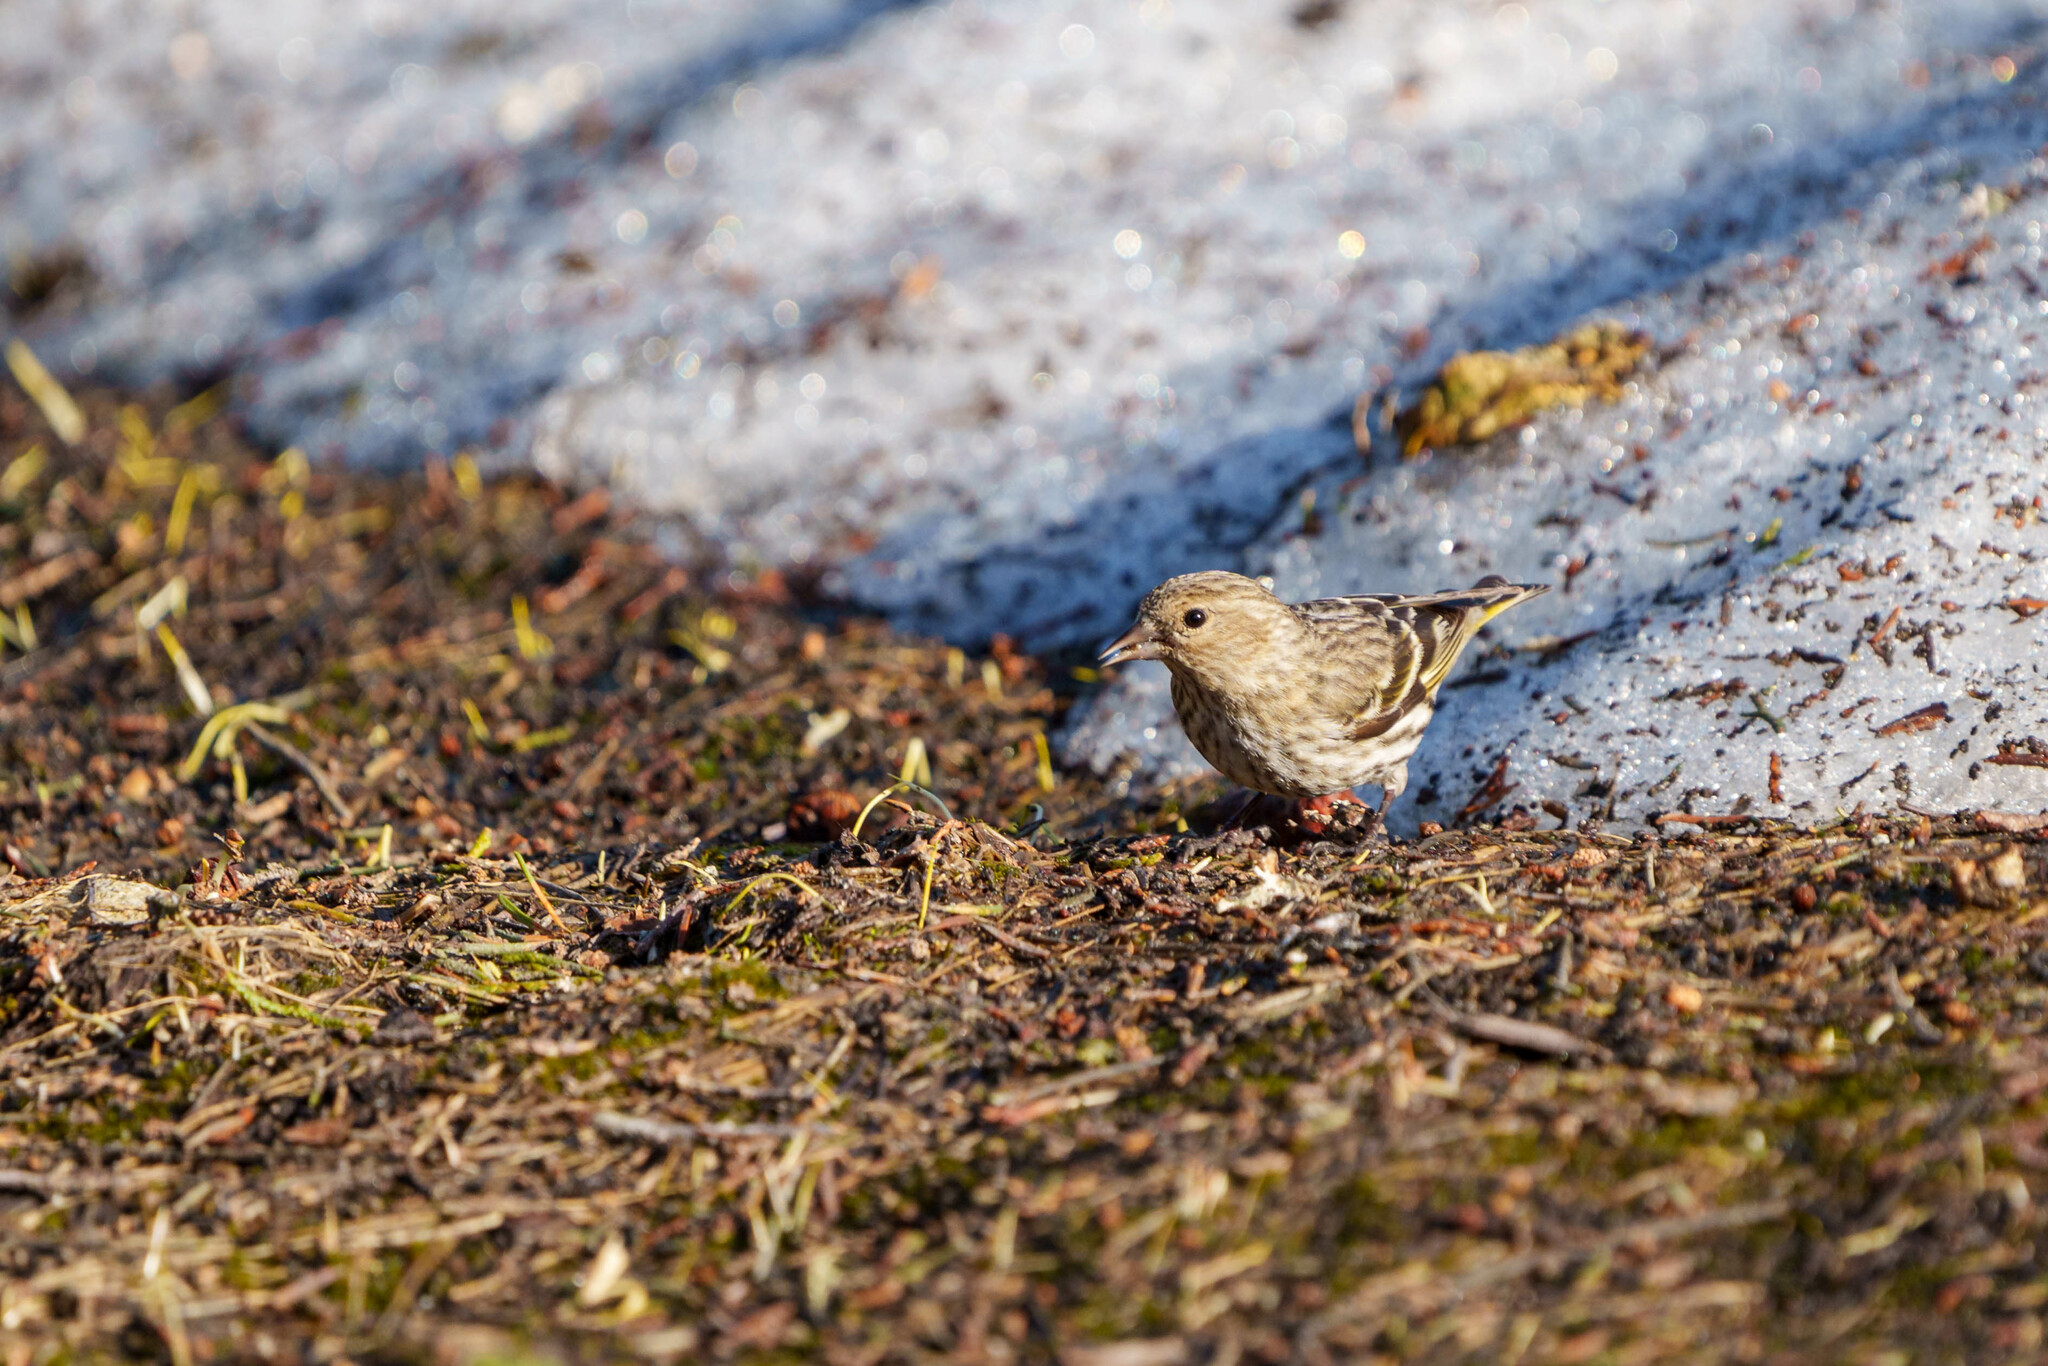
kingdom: Animalia
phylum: Chordata
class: Aves
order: Passeriformes
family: Fringillidae
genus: Spinus
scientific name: Spinus pinus
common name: Pine siskin
